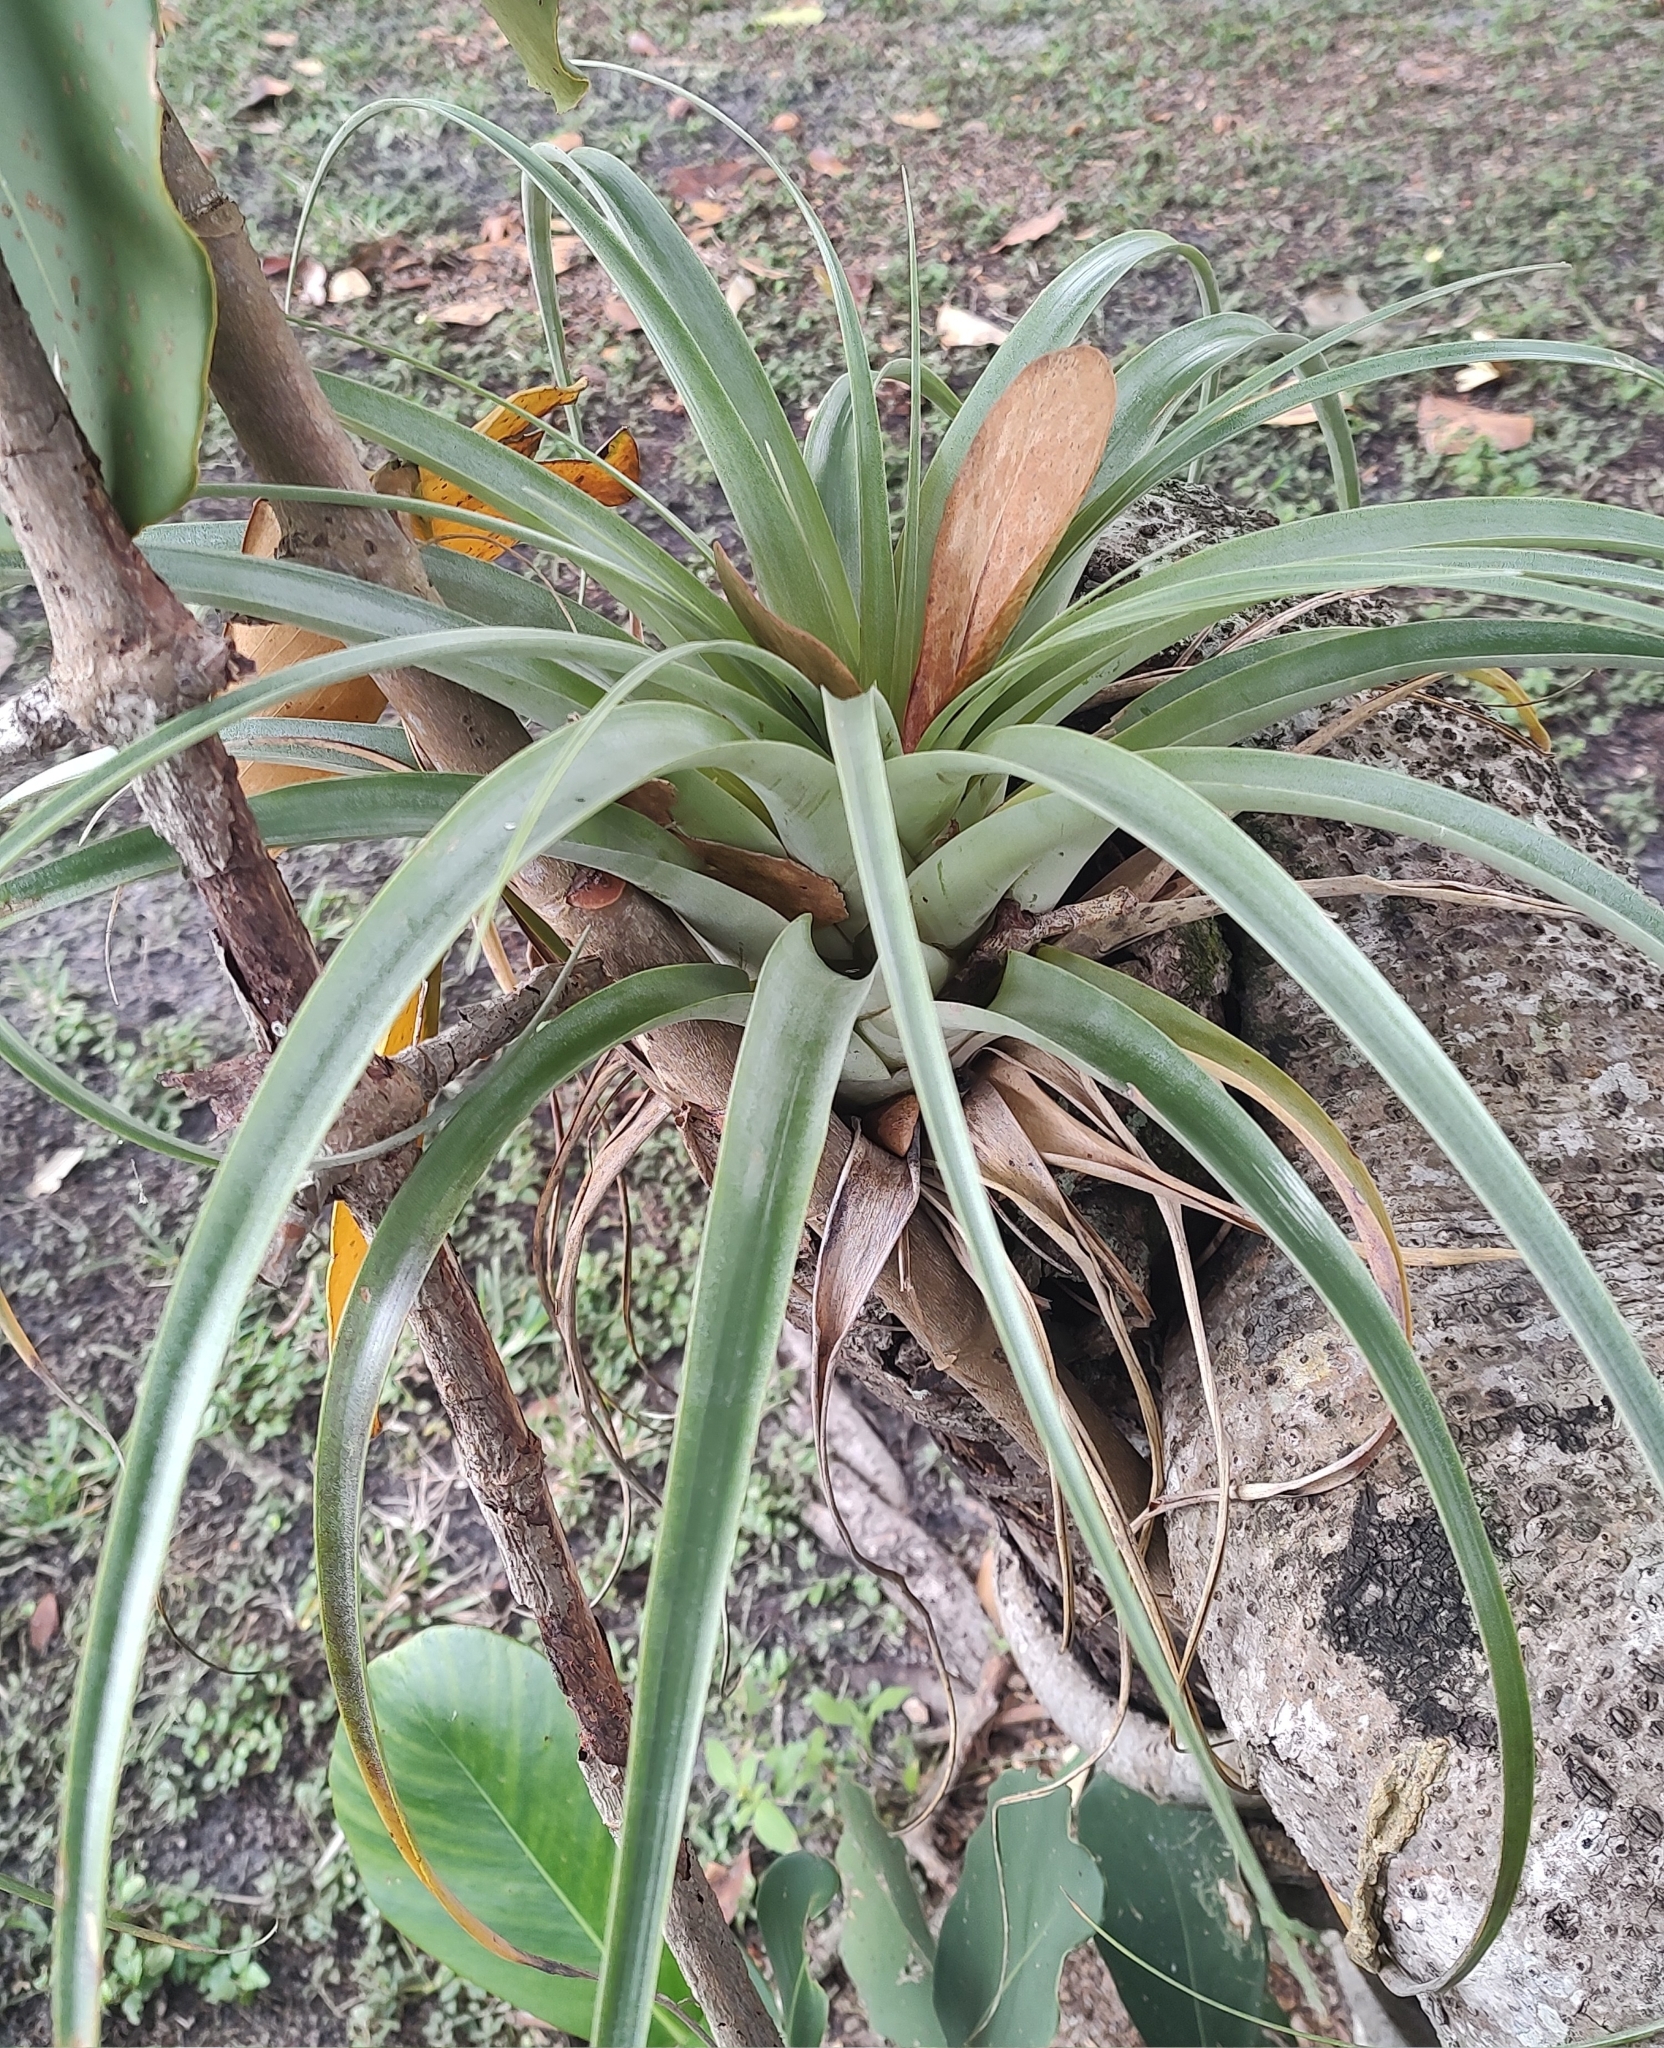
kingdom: Plantae
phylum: Tracheophyta
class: Liliopsida
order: Poales
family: Bromeliaceae
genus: Tillandsia
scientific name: Tillandsia utriculata
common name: Wild pine
